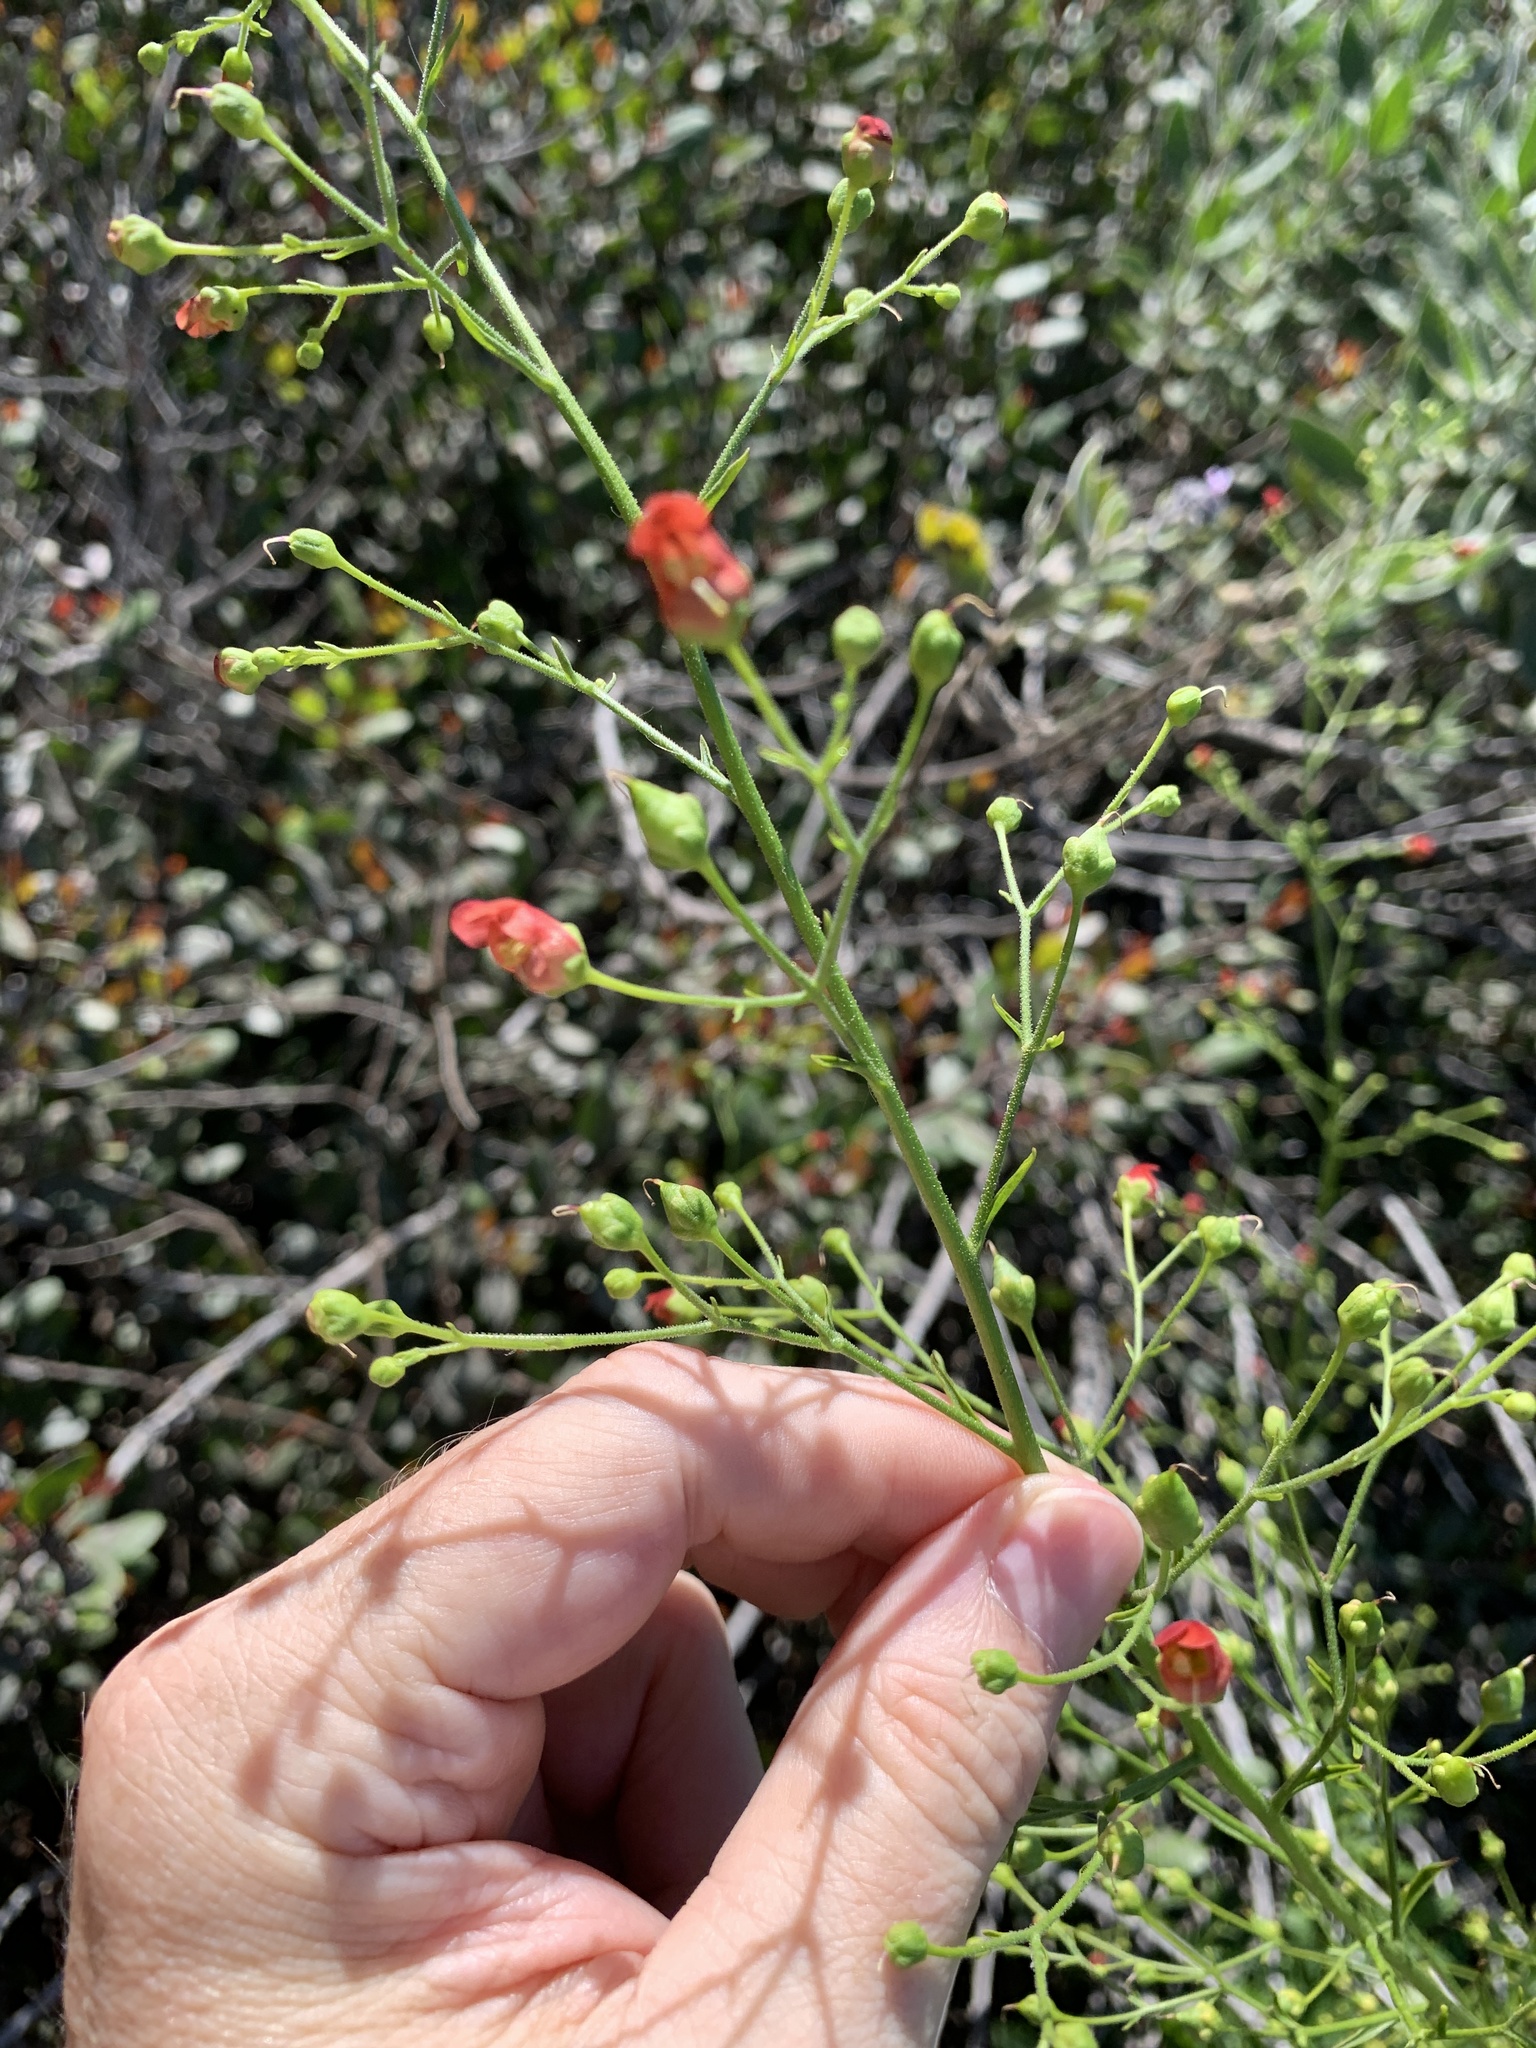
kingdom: Plantae
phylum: Tracheophyta
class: Magnoliopsida
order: Lamiales
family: Scrophulariaceae
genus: Scrophularia
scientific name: Scrophularia californica
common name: California figwort
